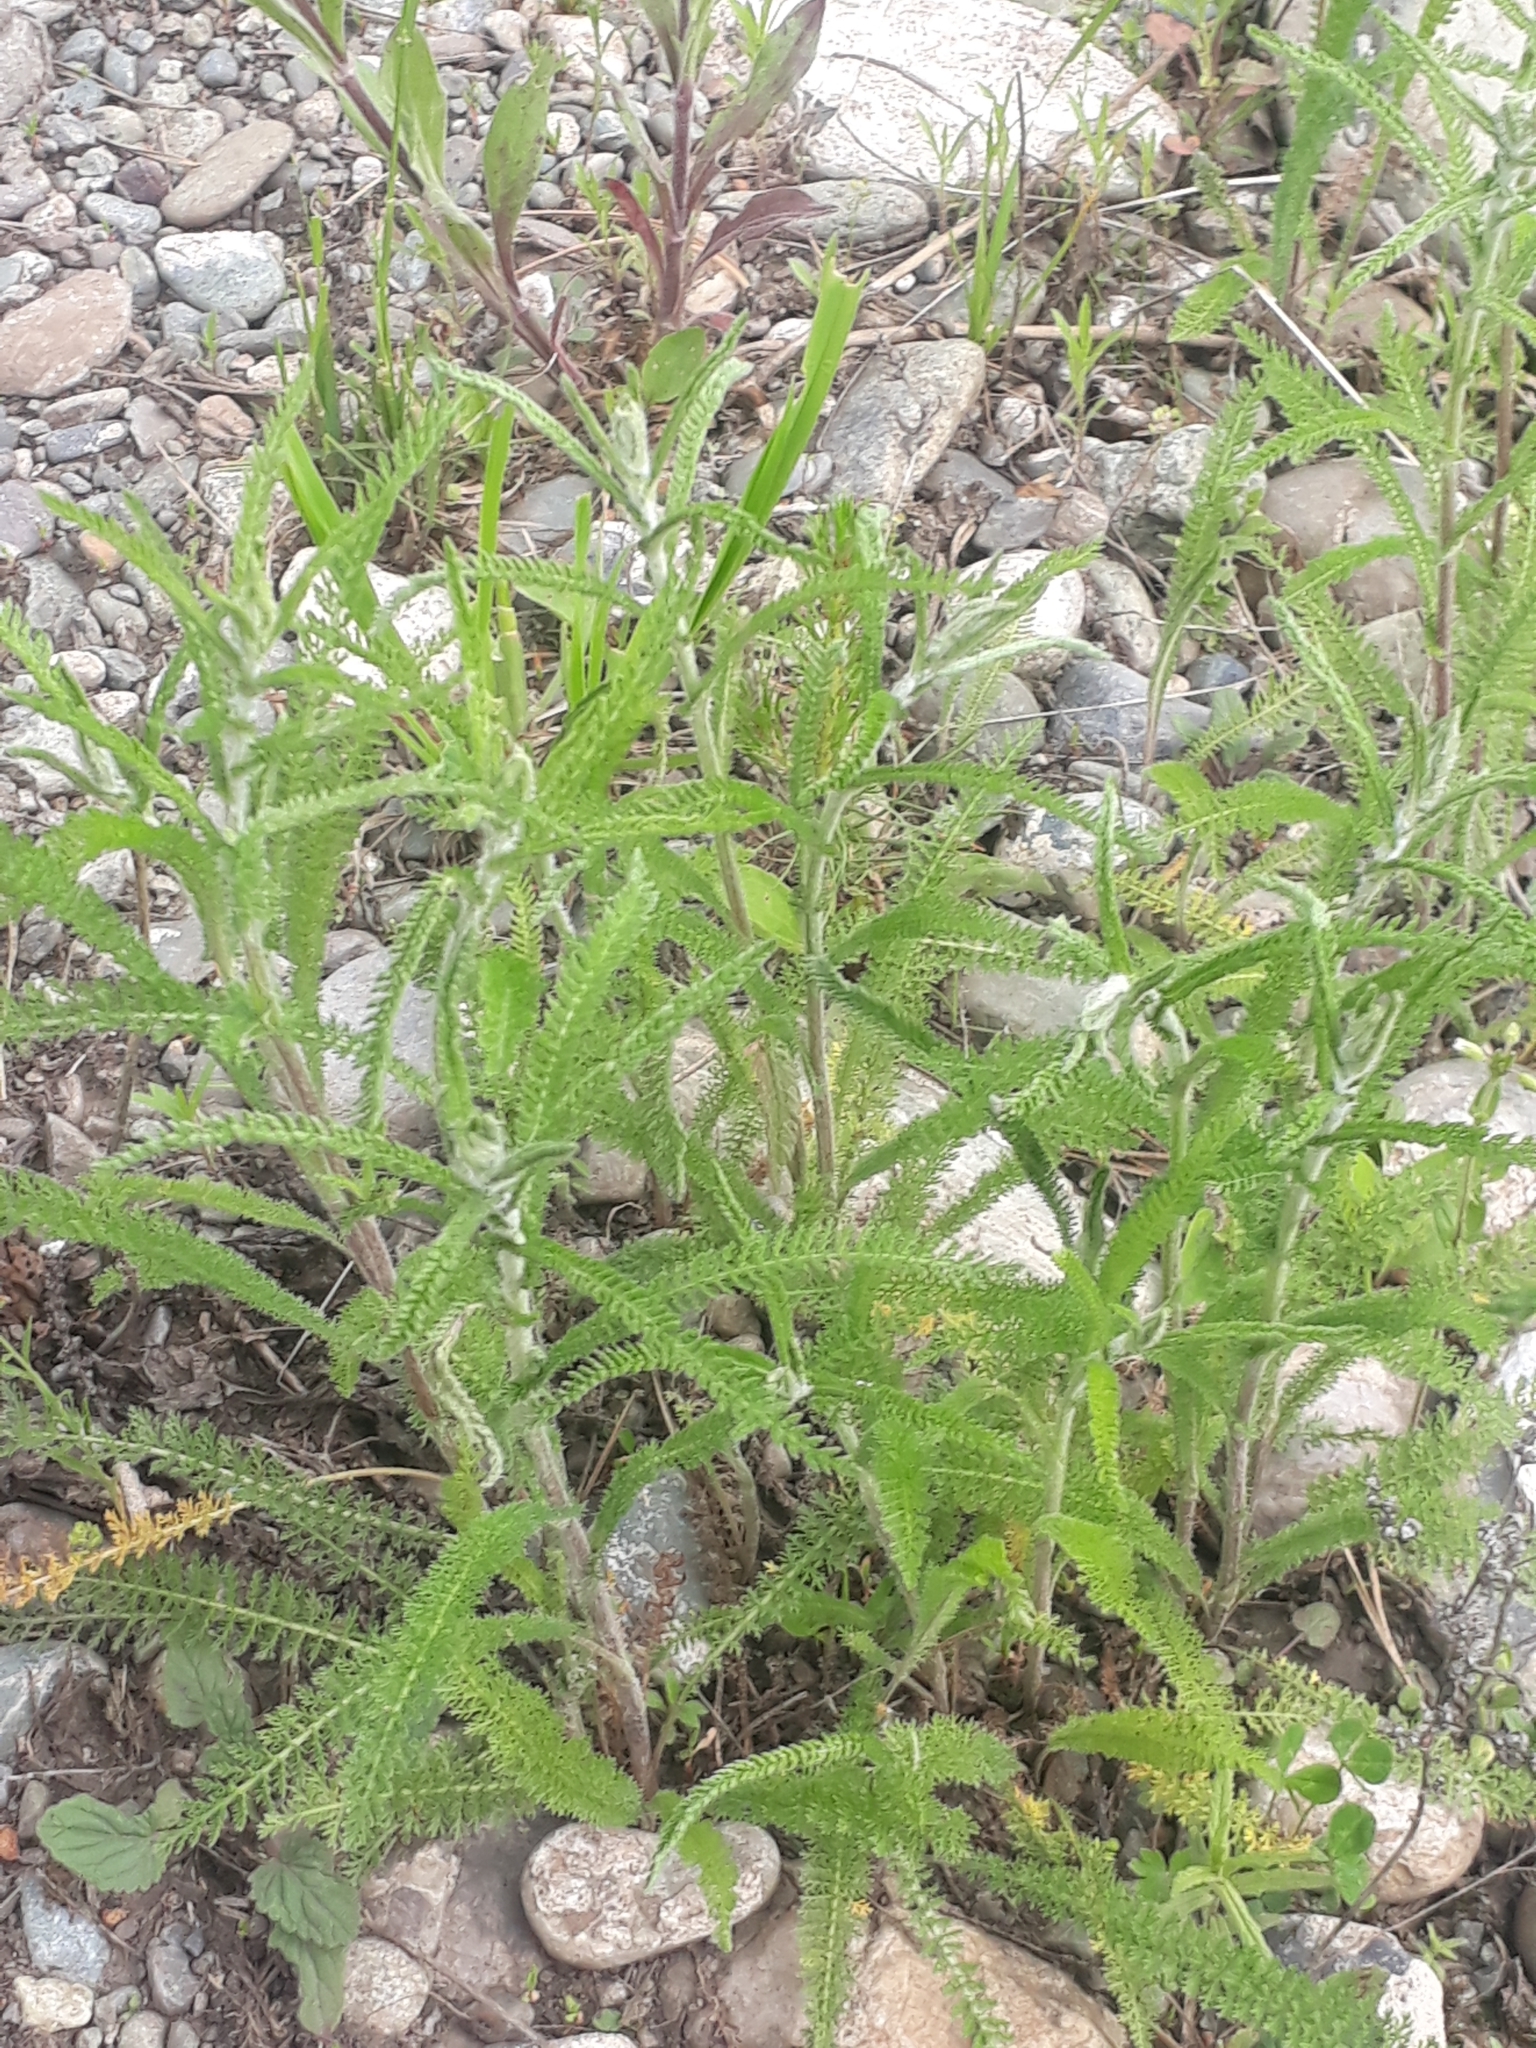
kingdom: Plantae
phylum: Tracheophyta
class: Magnoliopsida
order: Asterales
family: Asteraceae
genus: Achillea
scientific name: Achillea asiatica
